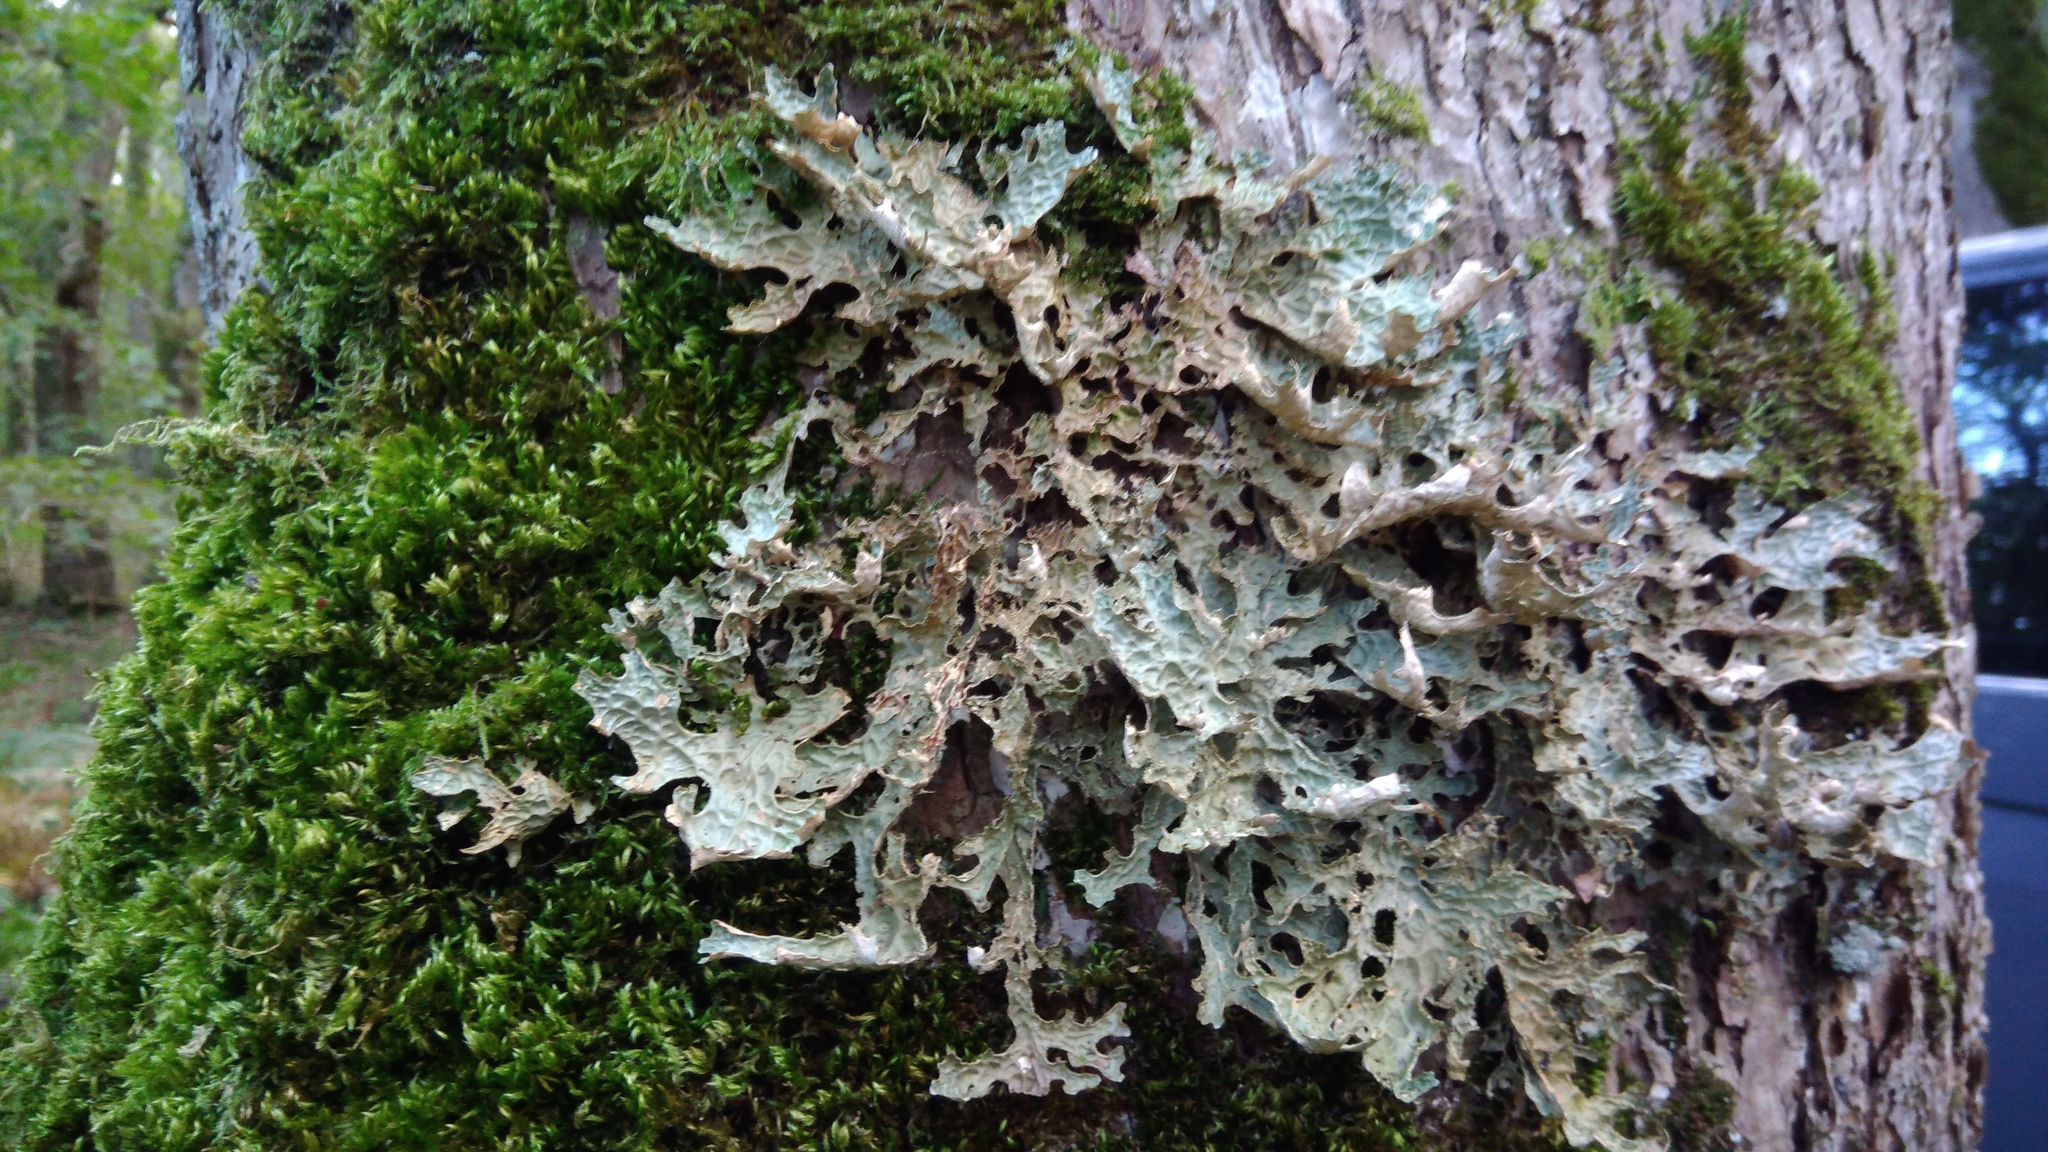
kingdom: Fungi
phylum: Ascomycota
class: Lecanoromycetes
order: Peltigerales
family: Lobariaceae
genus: Lobaria
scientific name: Lobaria pulmonaria
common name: Lungwort
